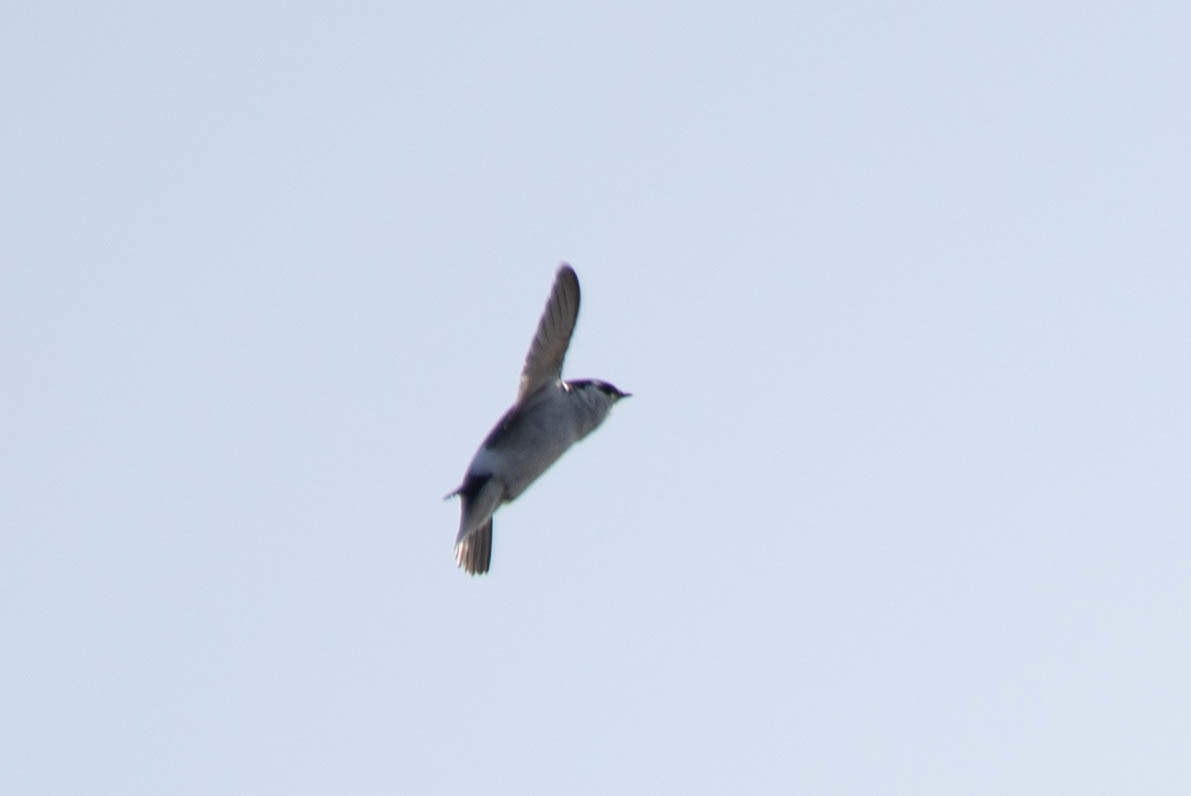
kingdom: Animalia
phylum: Chordata
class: Aves
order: Passeriformes
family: Hirundinidae
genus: Tachycineta
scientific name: Tachycineta thalassina
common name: Violet-green swallow
